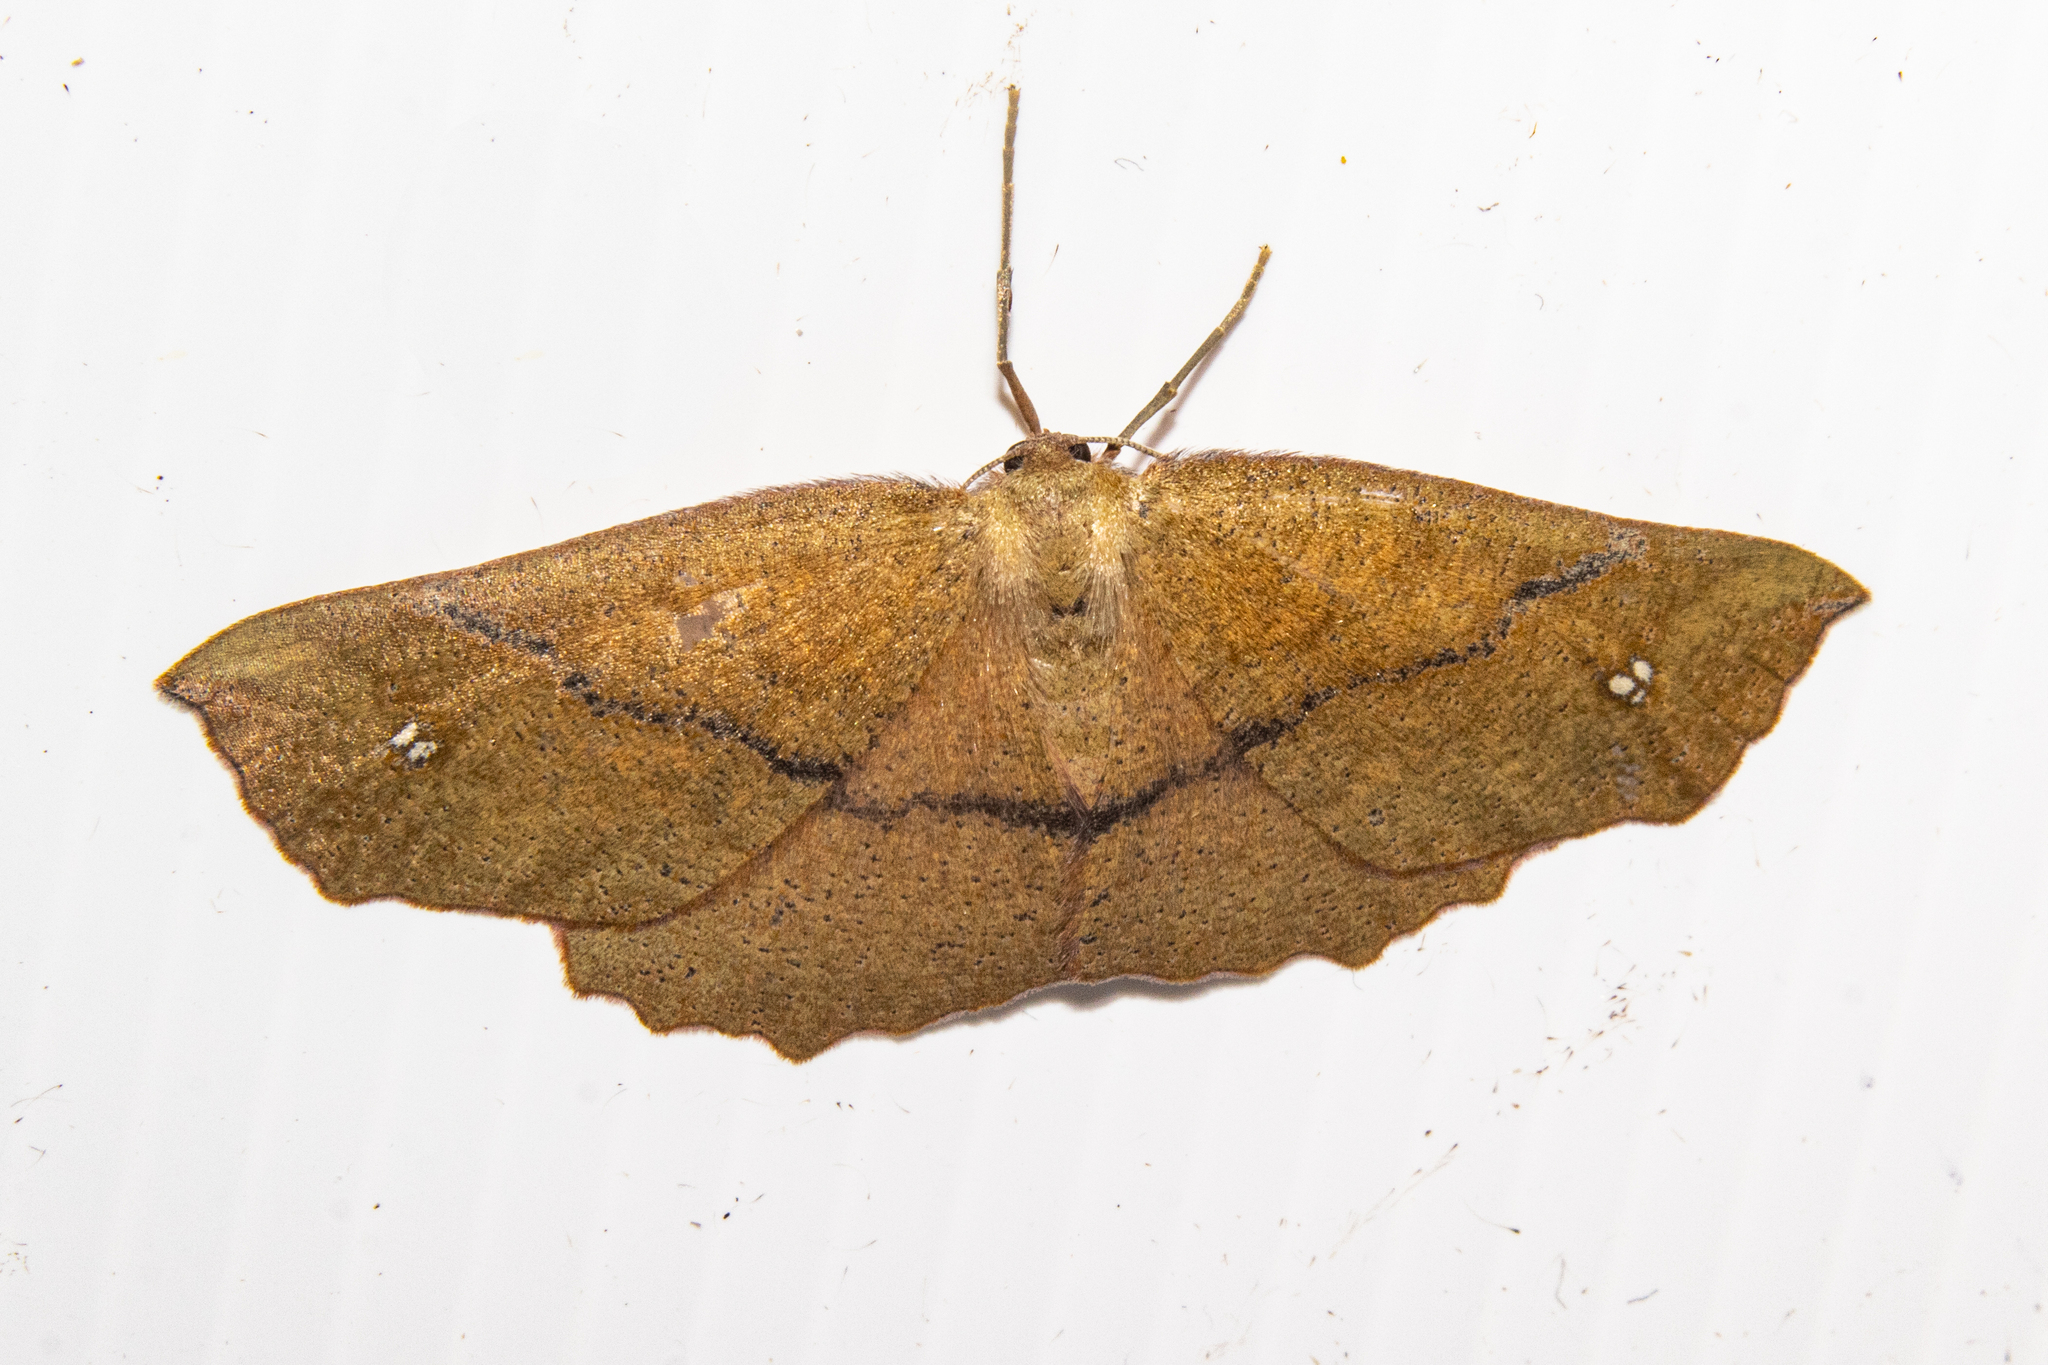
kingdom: Animalia
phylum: Arthropoda
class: Insecta
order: Lepidoptera
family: Geometridae
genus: Xyridacma
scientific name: Xyridacma ustaria
